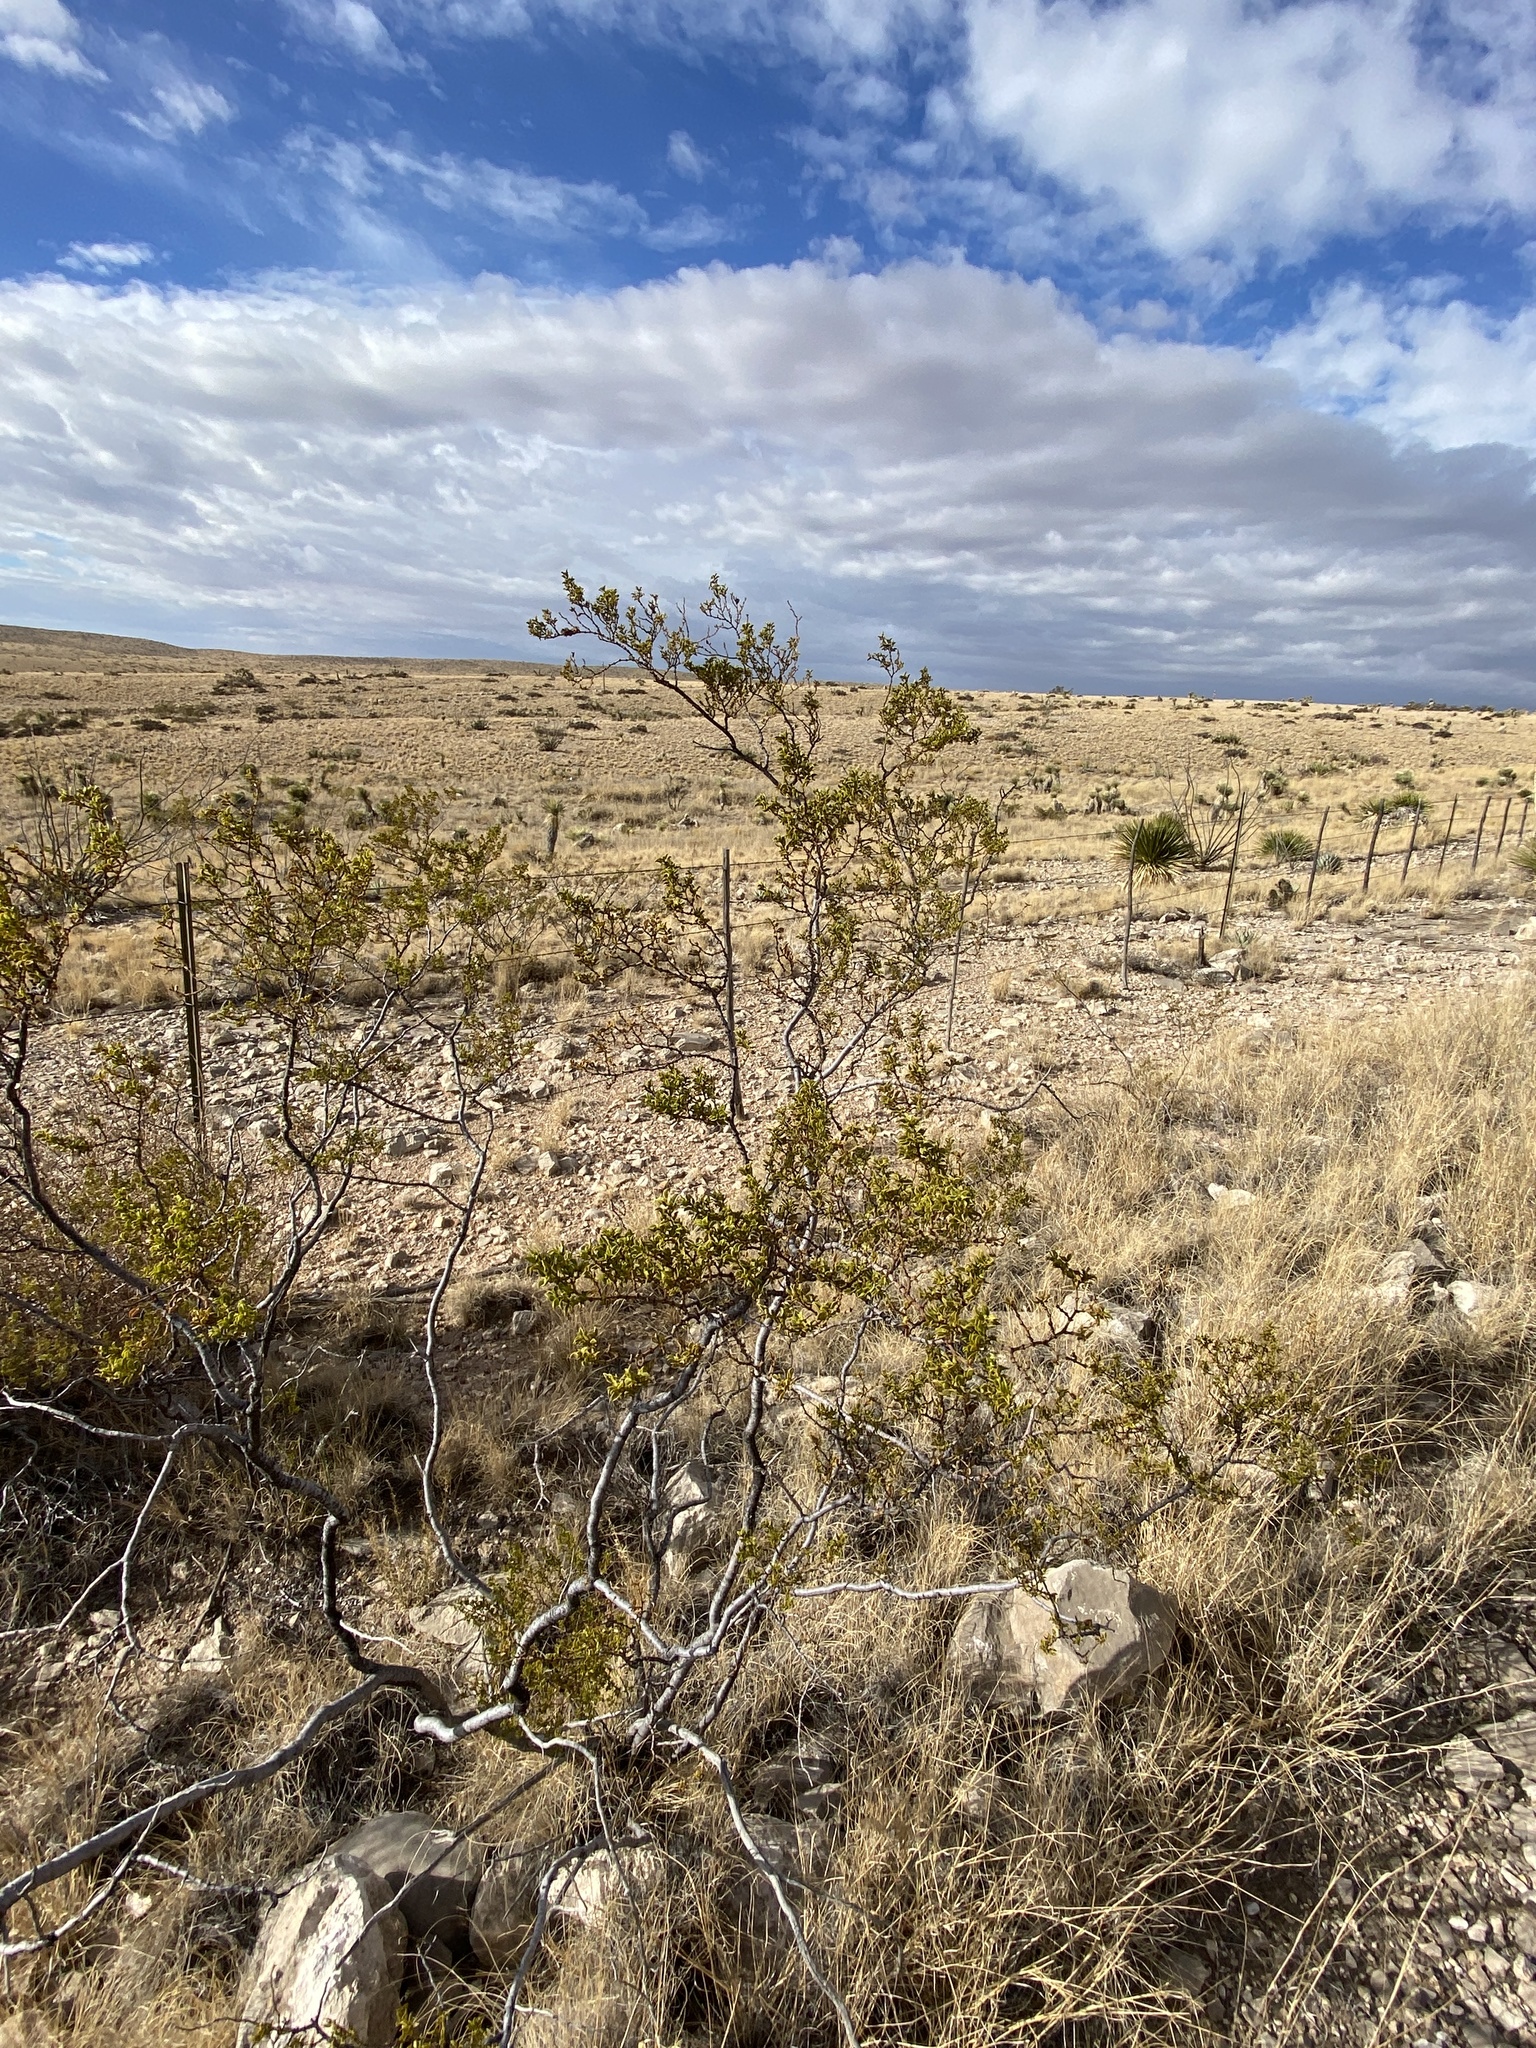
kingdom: Plantae
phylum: Tracheophyta
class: Magnoliopsida
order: Zygophyllales
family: Zygophyllaceae
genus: Larrea
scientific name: Larrea tridentata
